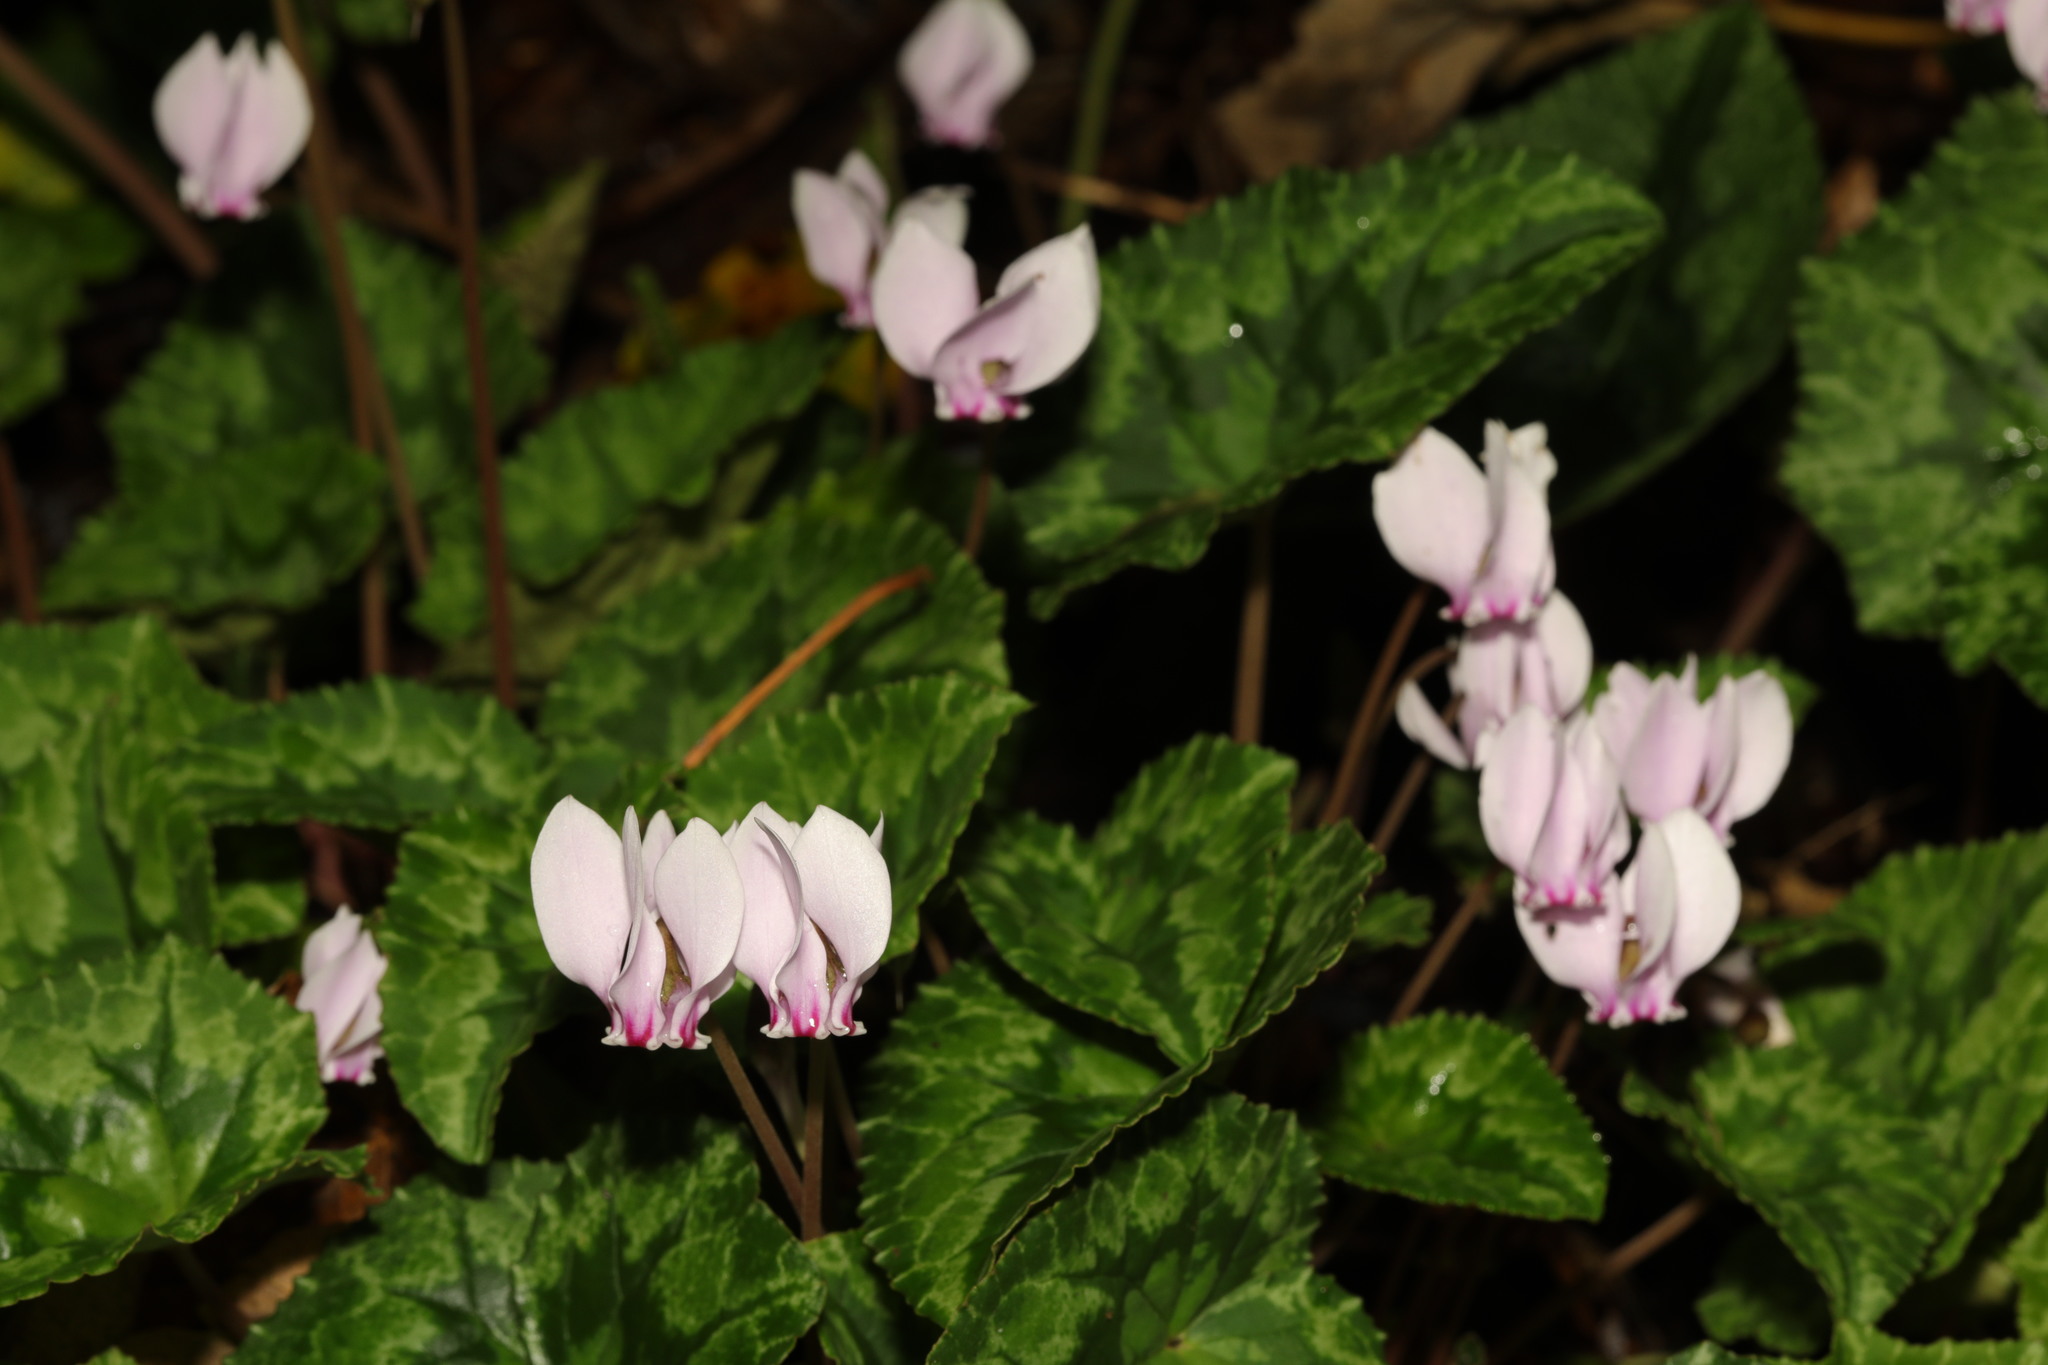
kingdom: Plantae
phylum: Tracheophyta
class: Magnoliopsida
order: Ericales
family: Primulaceae
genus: Cyclamen
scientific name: Cyclamen hederifolium
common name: Sowbread
